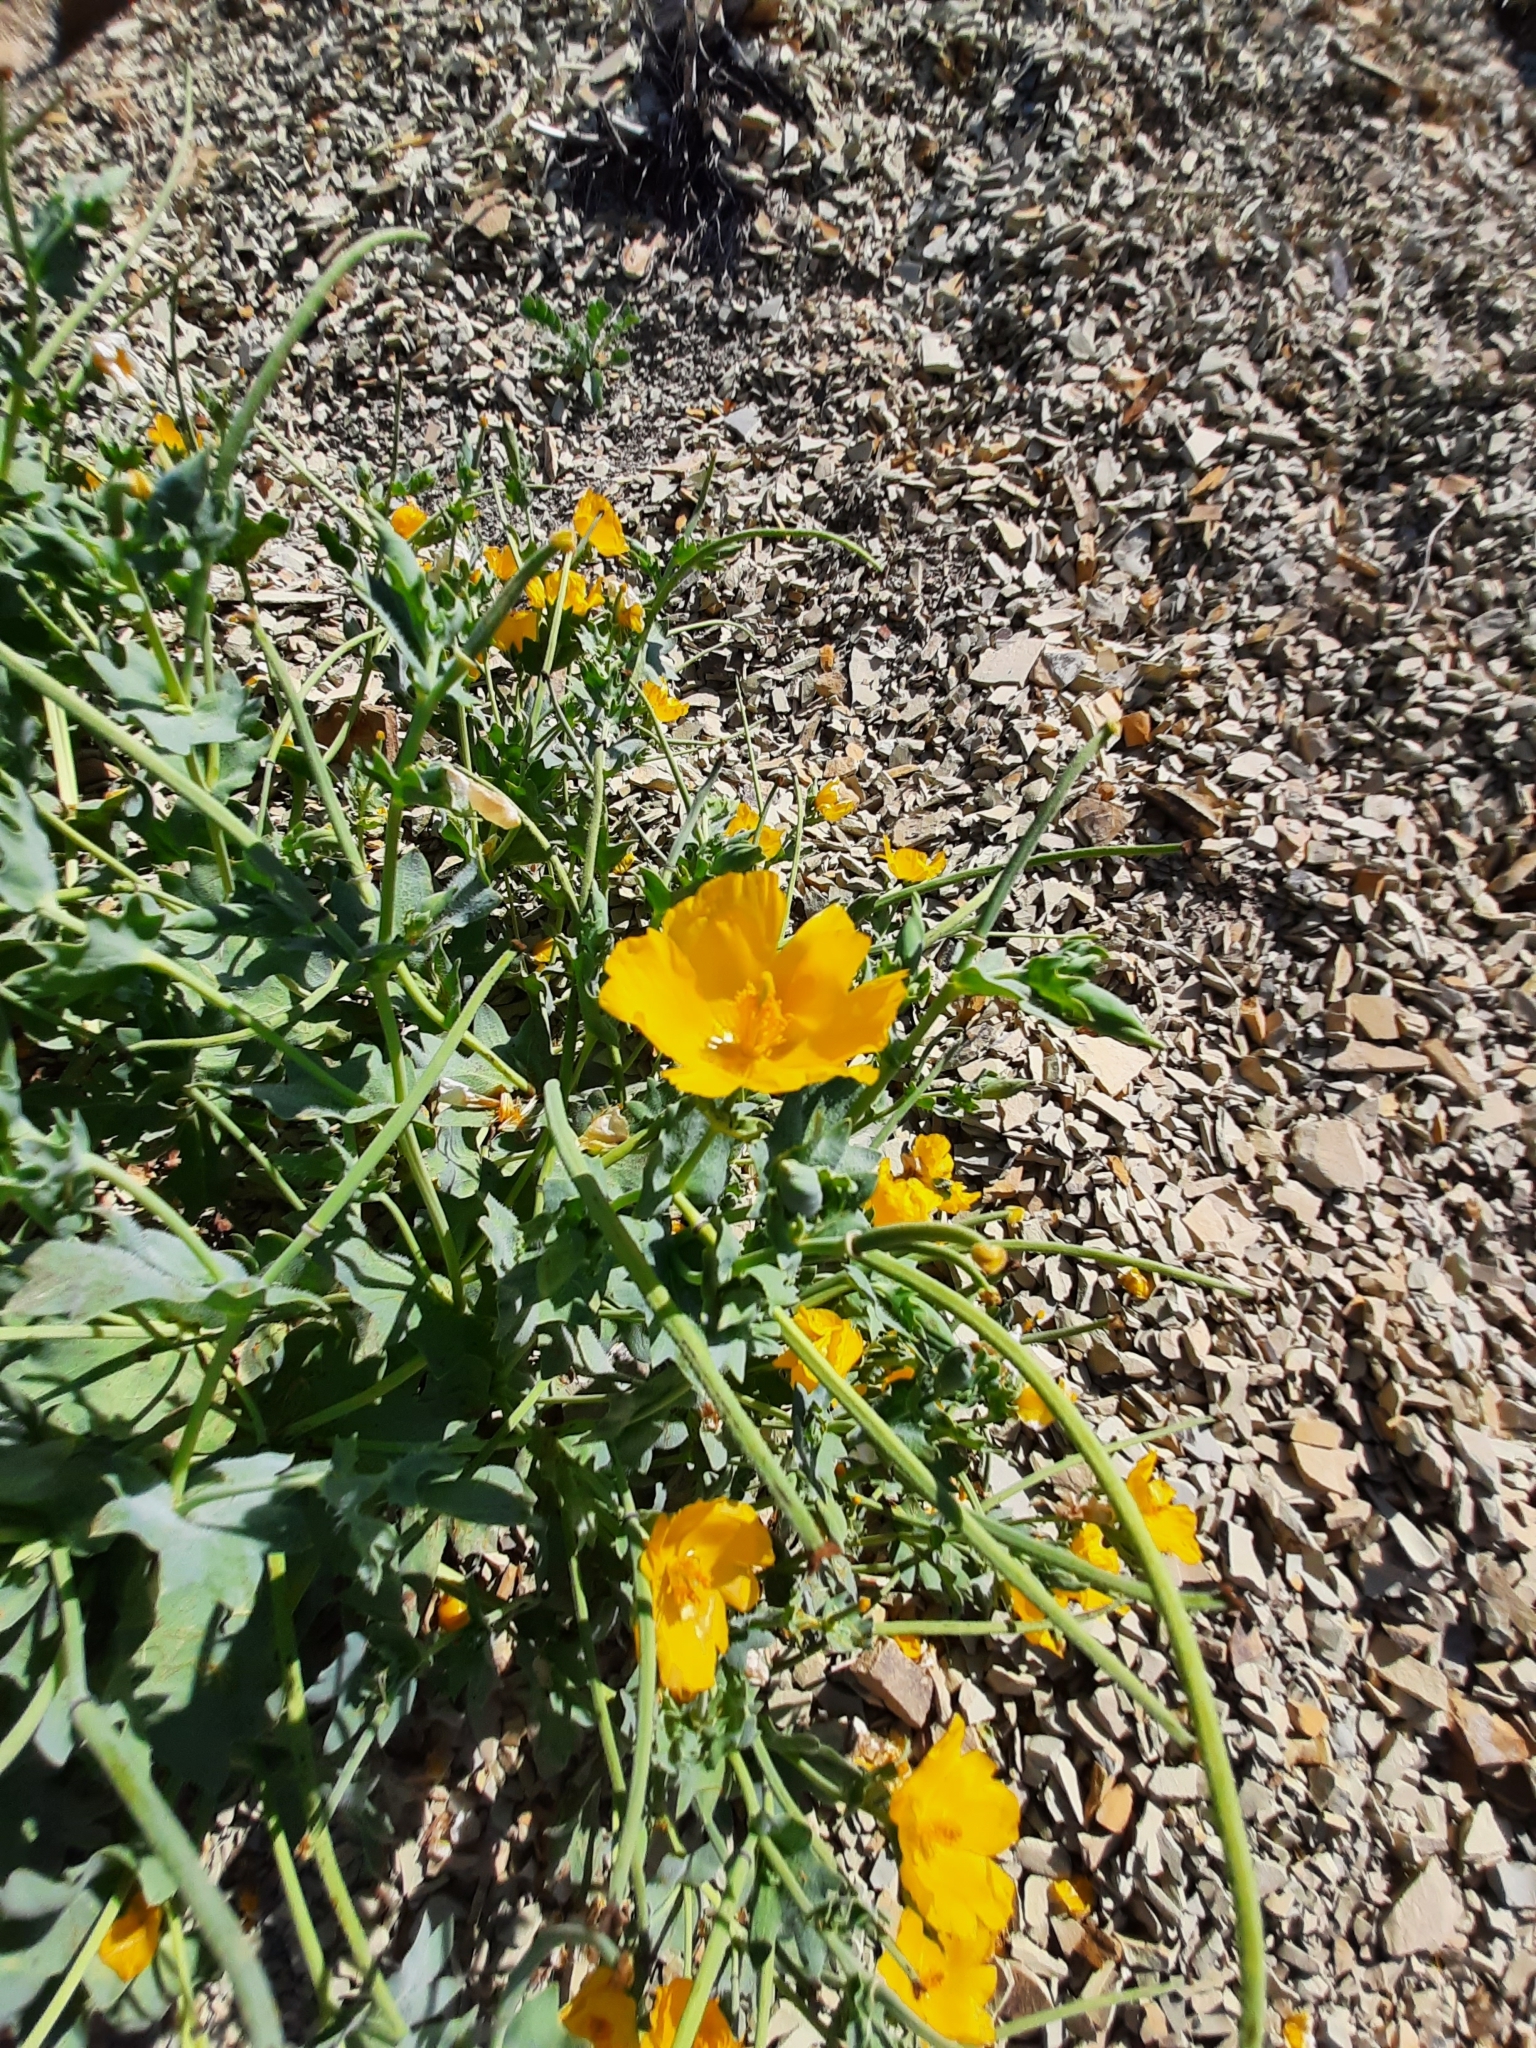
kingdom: Plantae
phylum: Tracheophyta
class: Magnoliopsida
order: Ranunculales
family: Papaveraceae
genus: Glaucium
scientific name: Glaucium flavum
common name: Yellow horned-poppy
